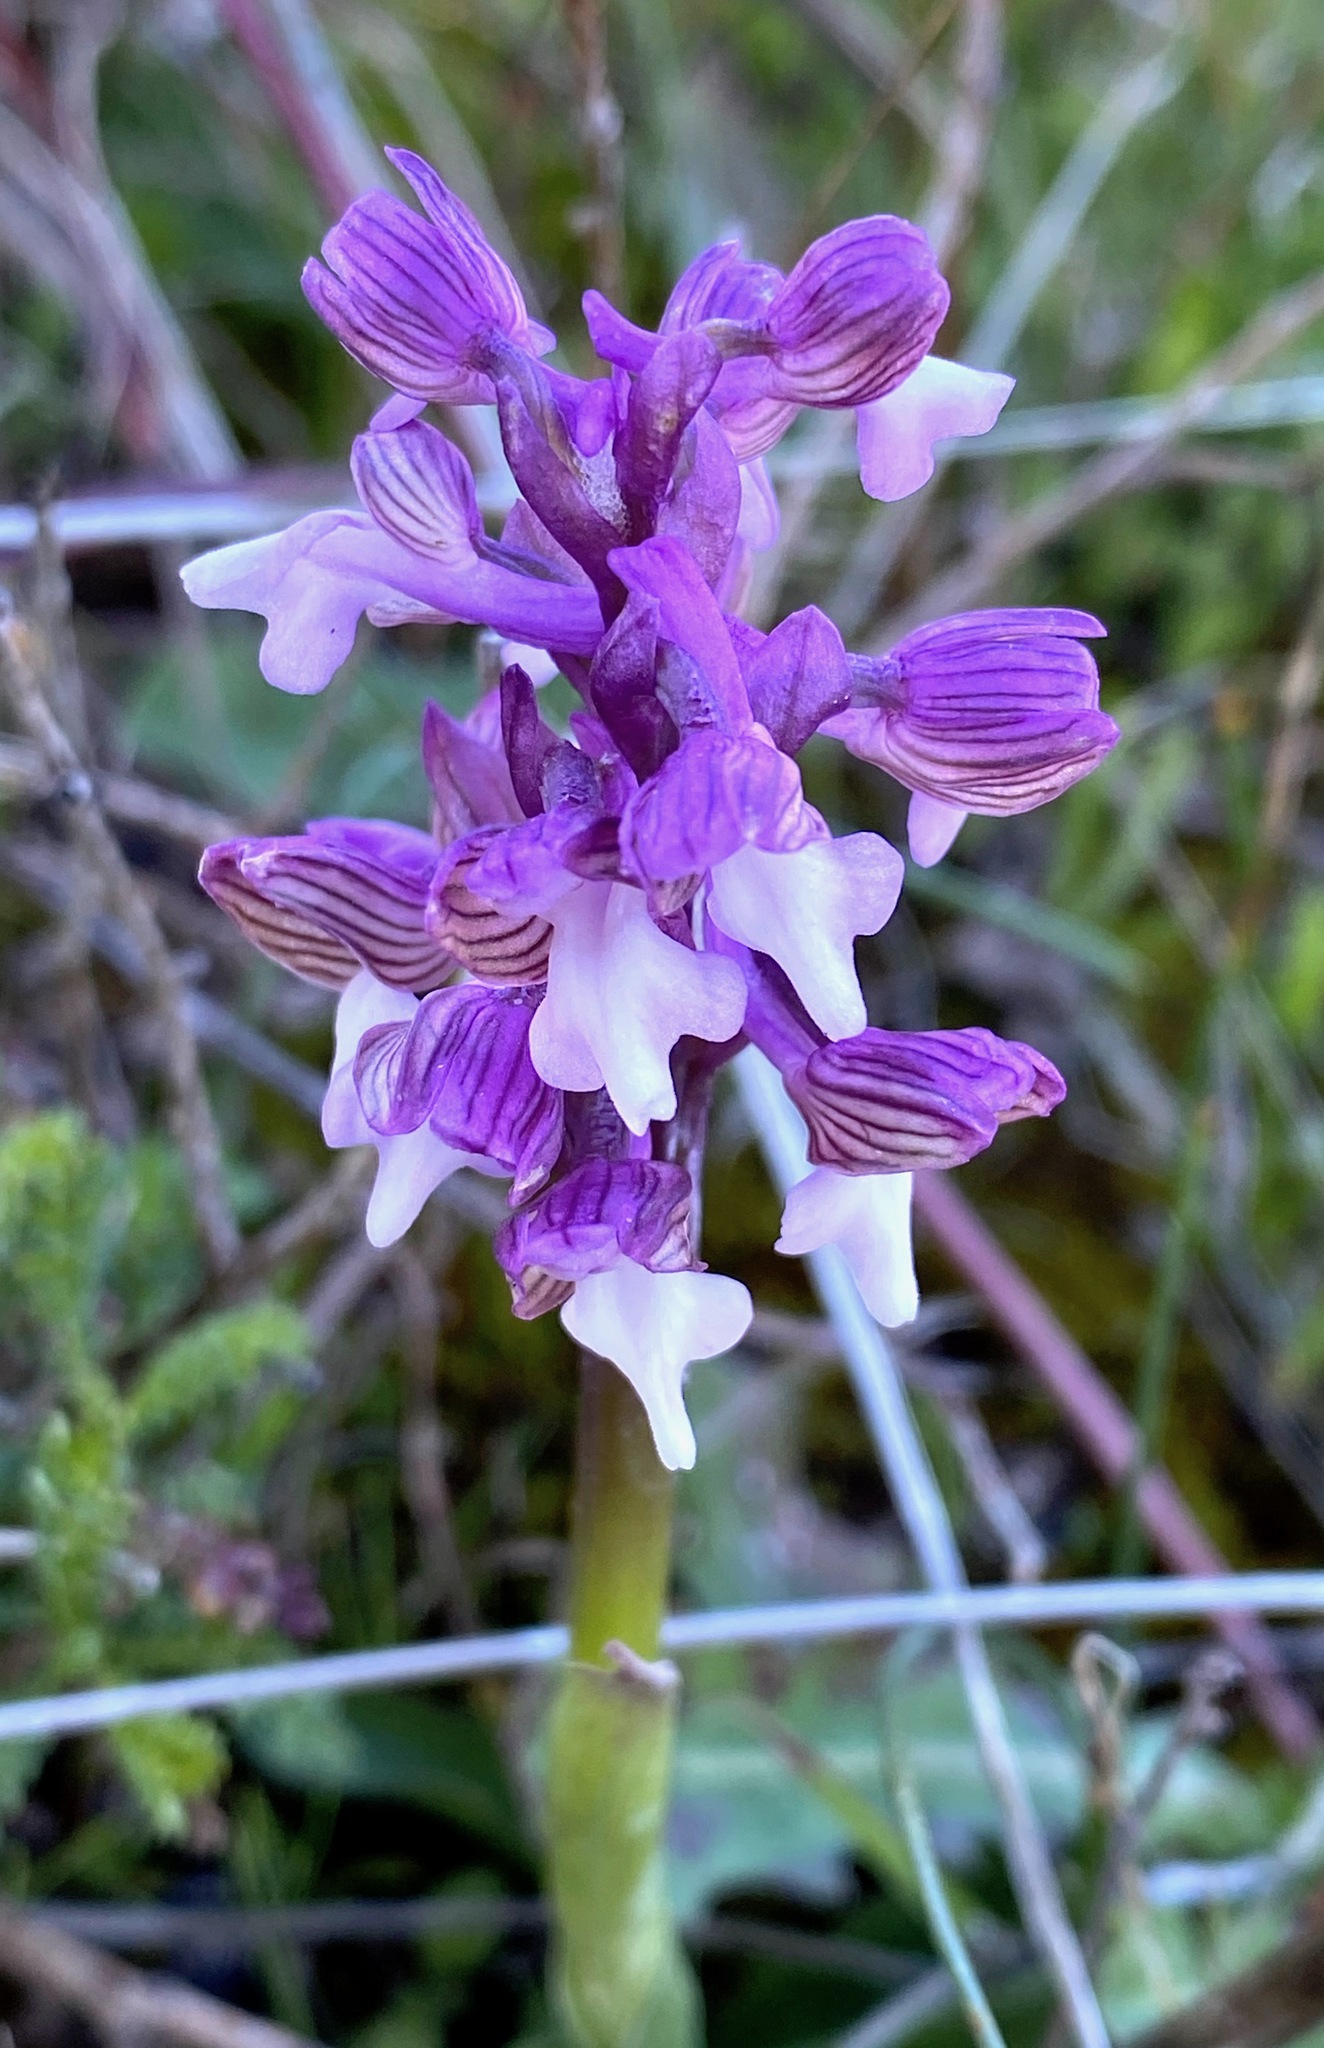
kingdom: Plantae
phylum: Tracheophyta
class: Liliopsida
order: Asparagales
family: Orchidaceae
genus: Anacamptis
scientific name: Anacamptis morio
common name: Green-winged orchid
